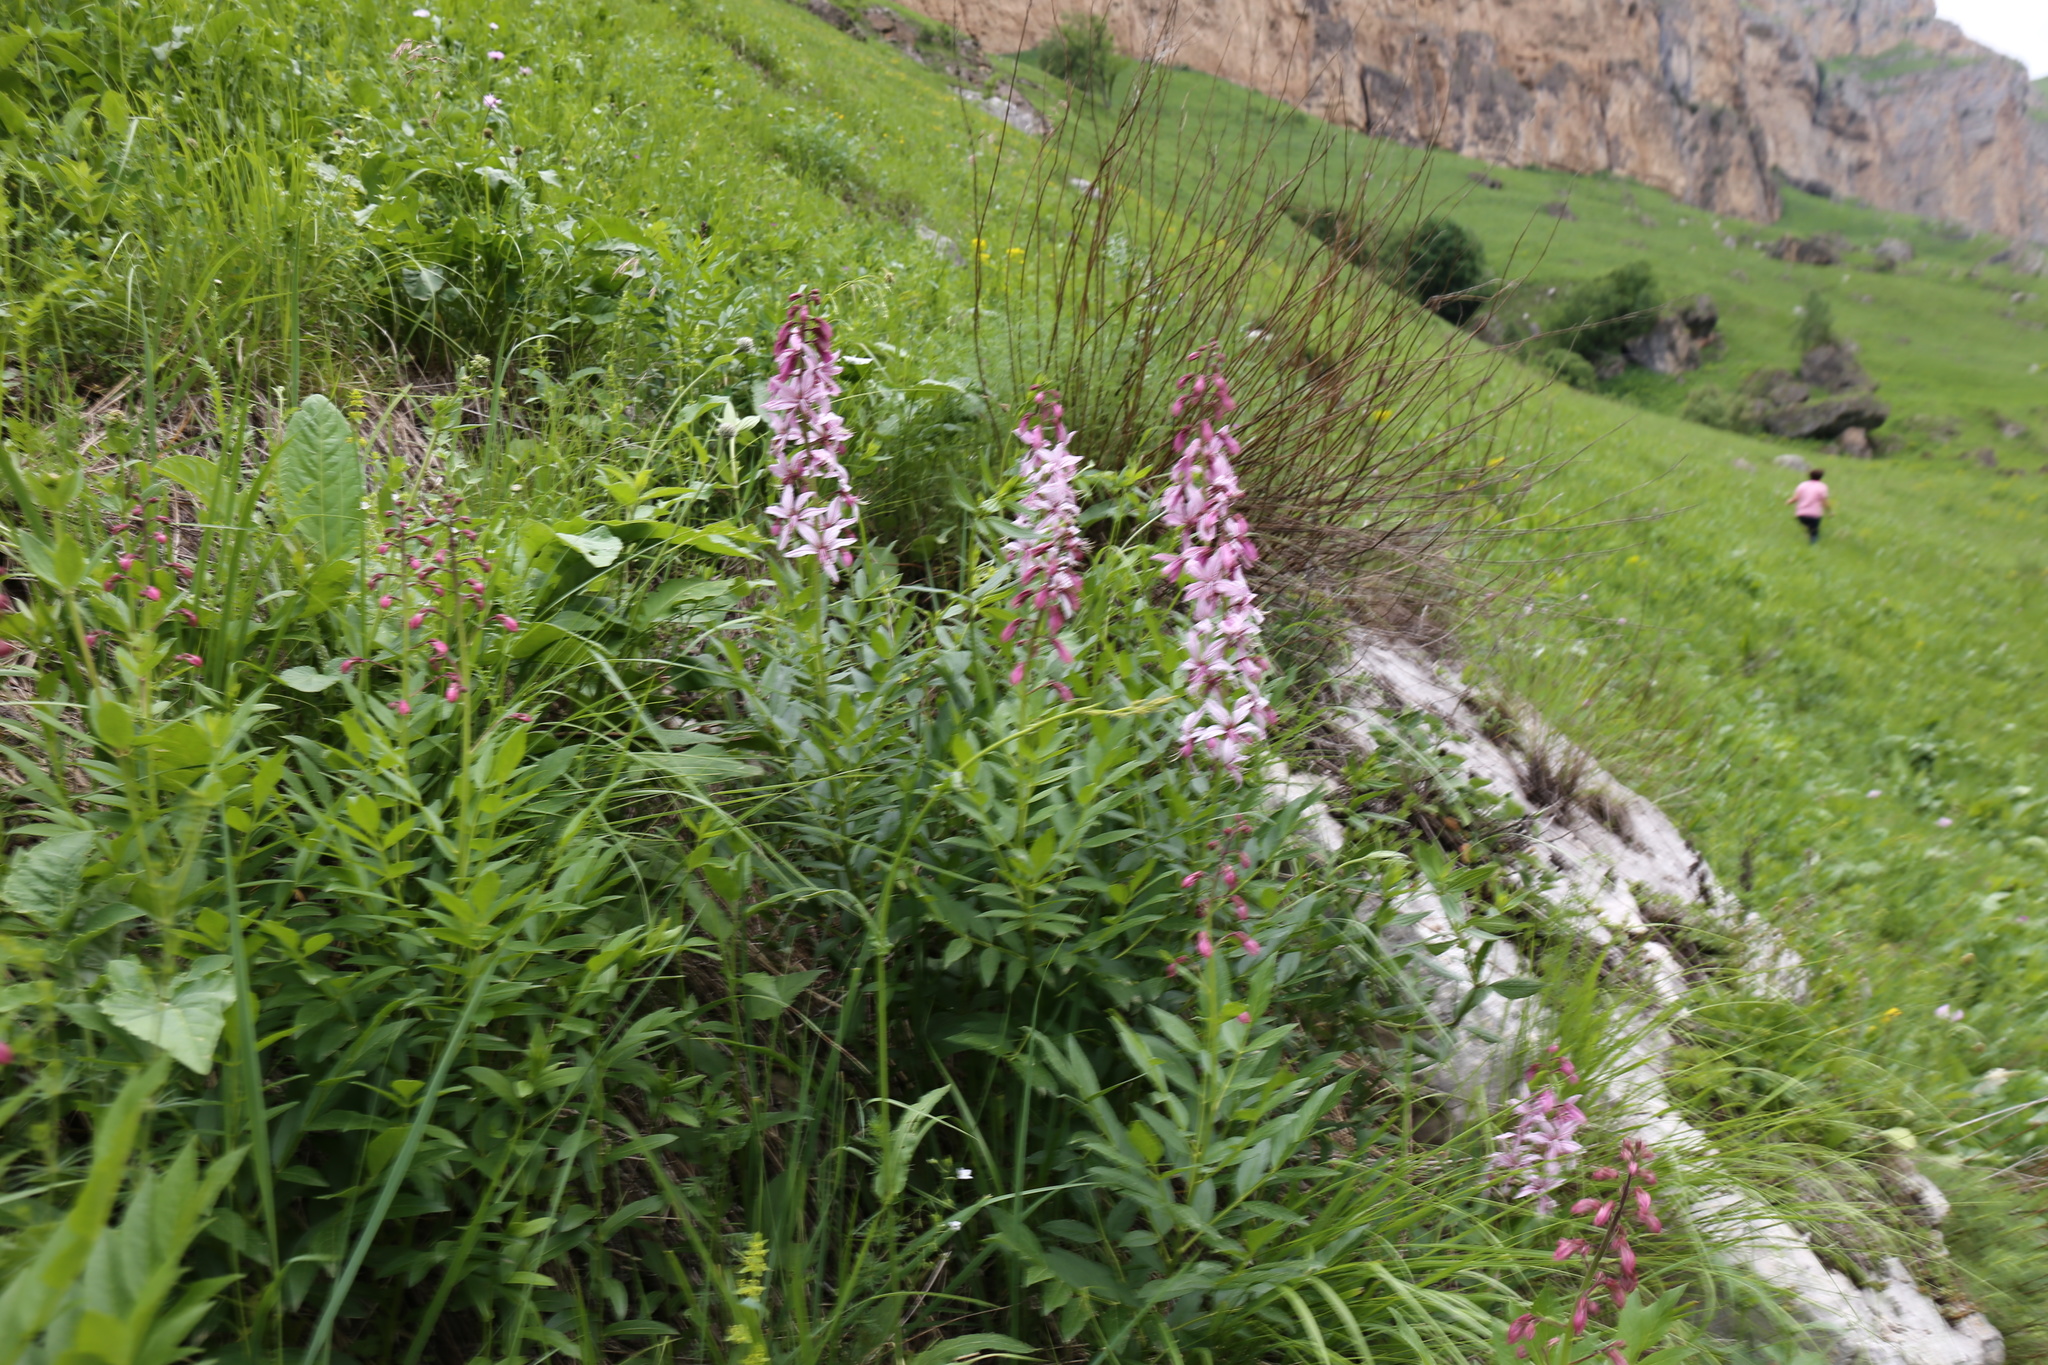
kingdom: Plantae
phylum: Tracheophyta
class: Magnoliopsida
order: Sapindales
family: Rutaceae
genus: Dictamnus
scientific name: Dictamnus albus
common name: Gasplant
